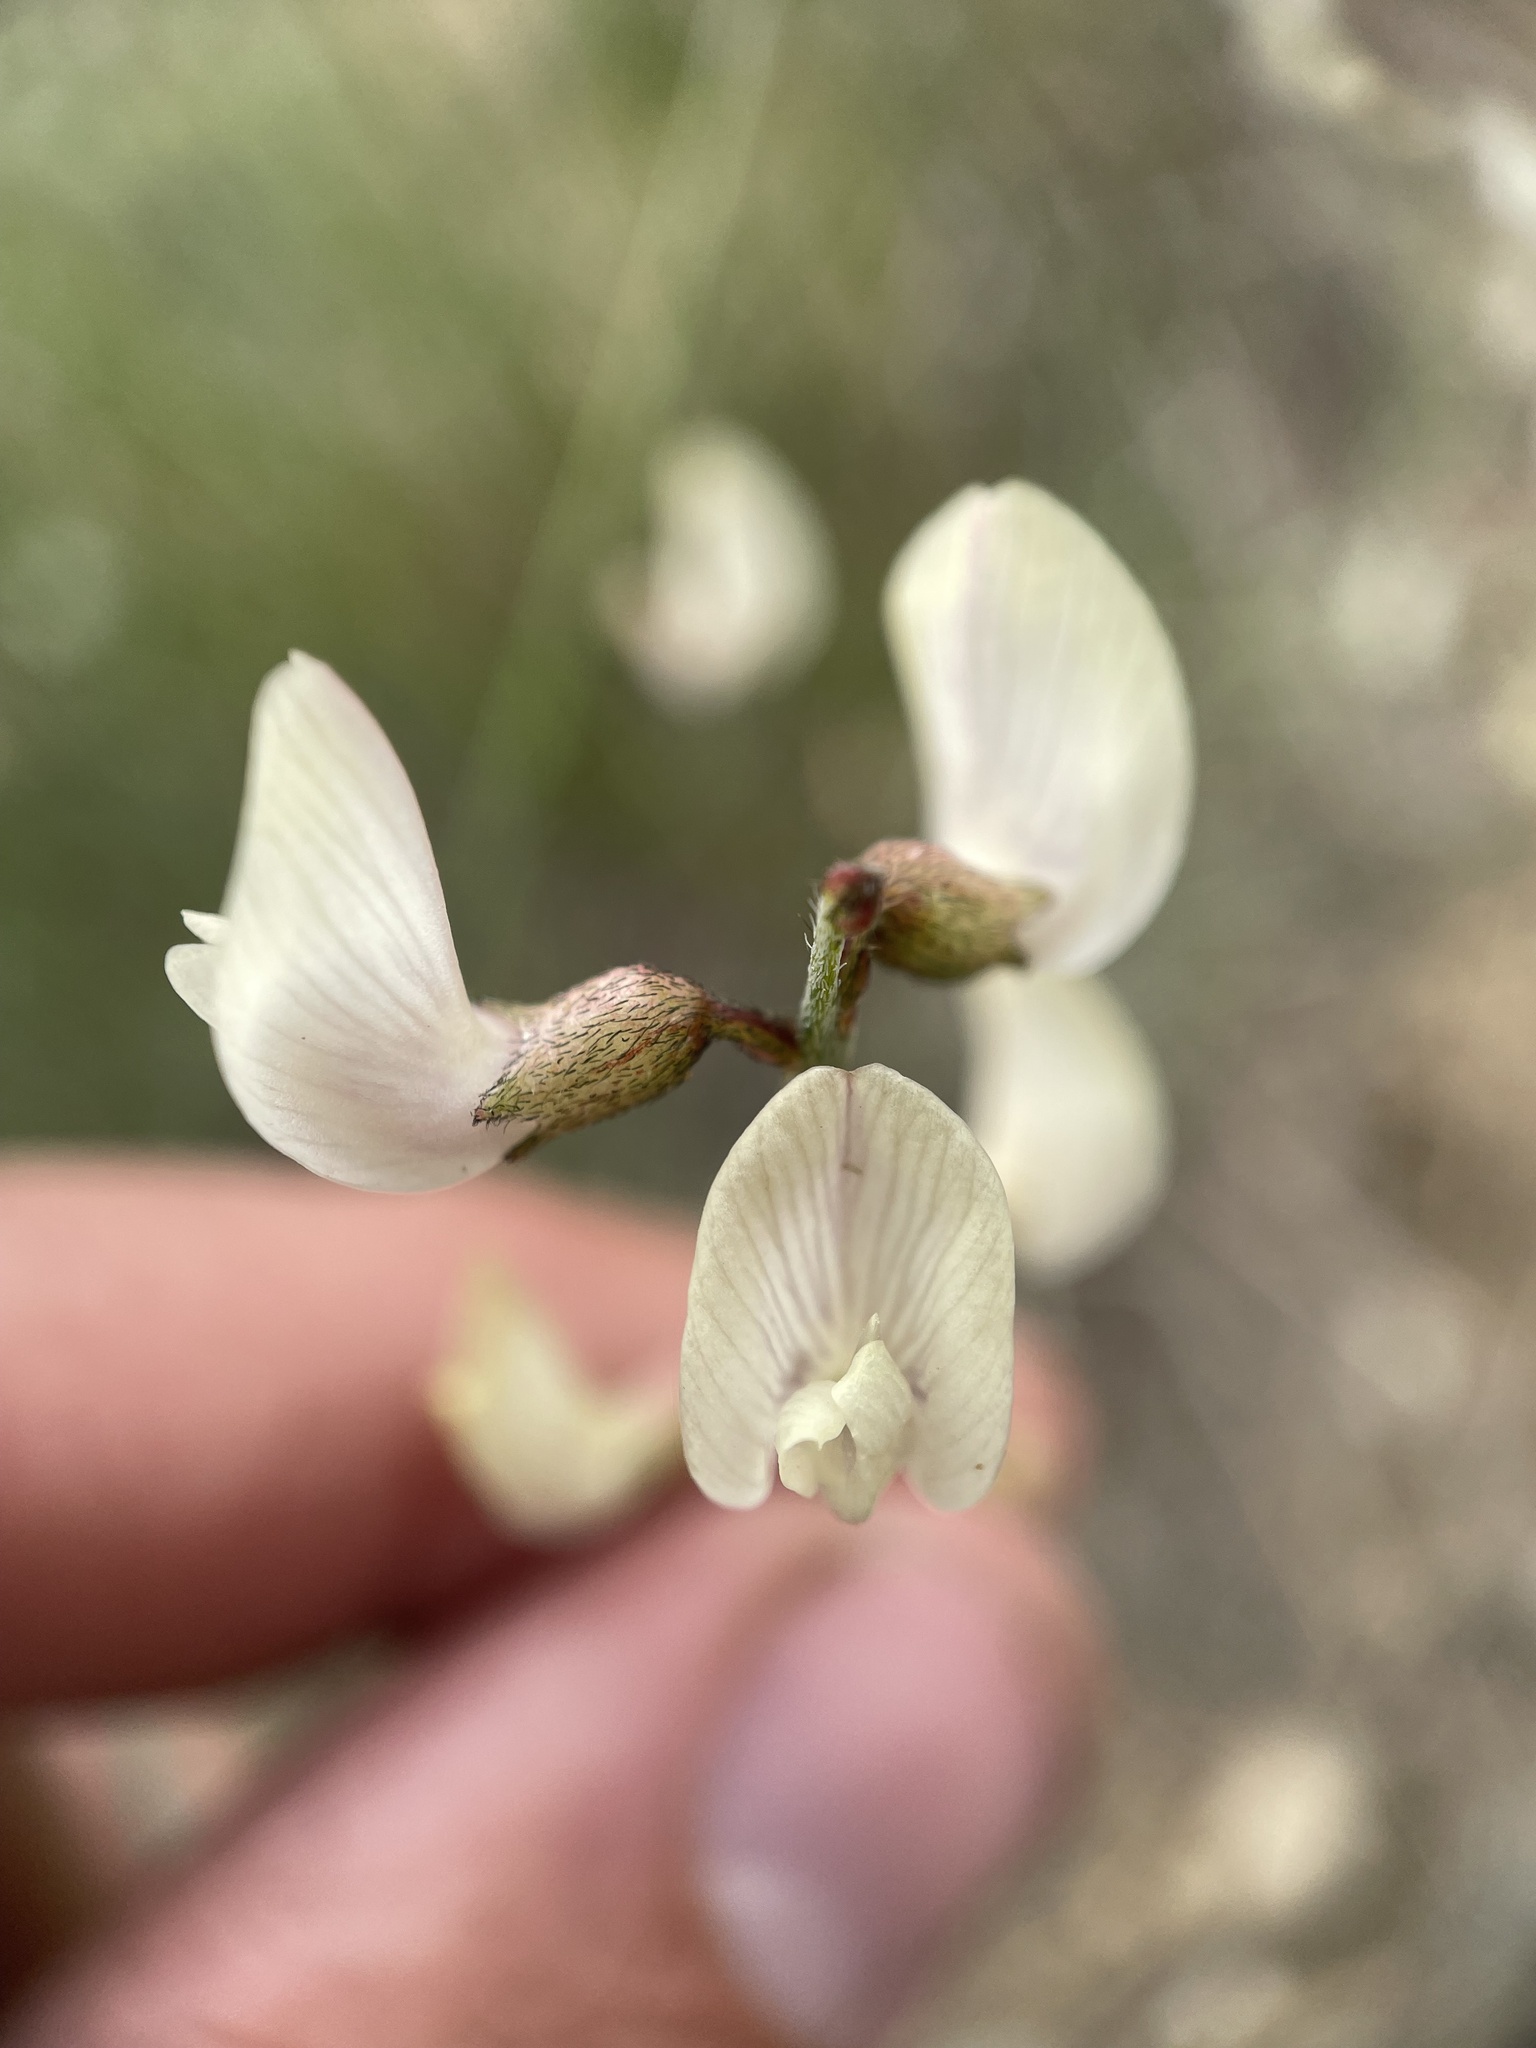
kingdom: Plantae
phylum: Tracheophyta
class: Magnoliopsida
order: Fabales
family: Fabaceae
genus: Astragalus
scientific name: Astragalus convallarius
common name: Lesser rushy milk-vetch
